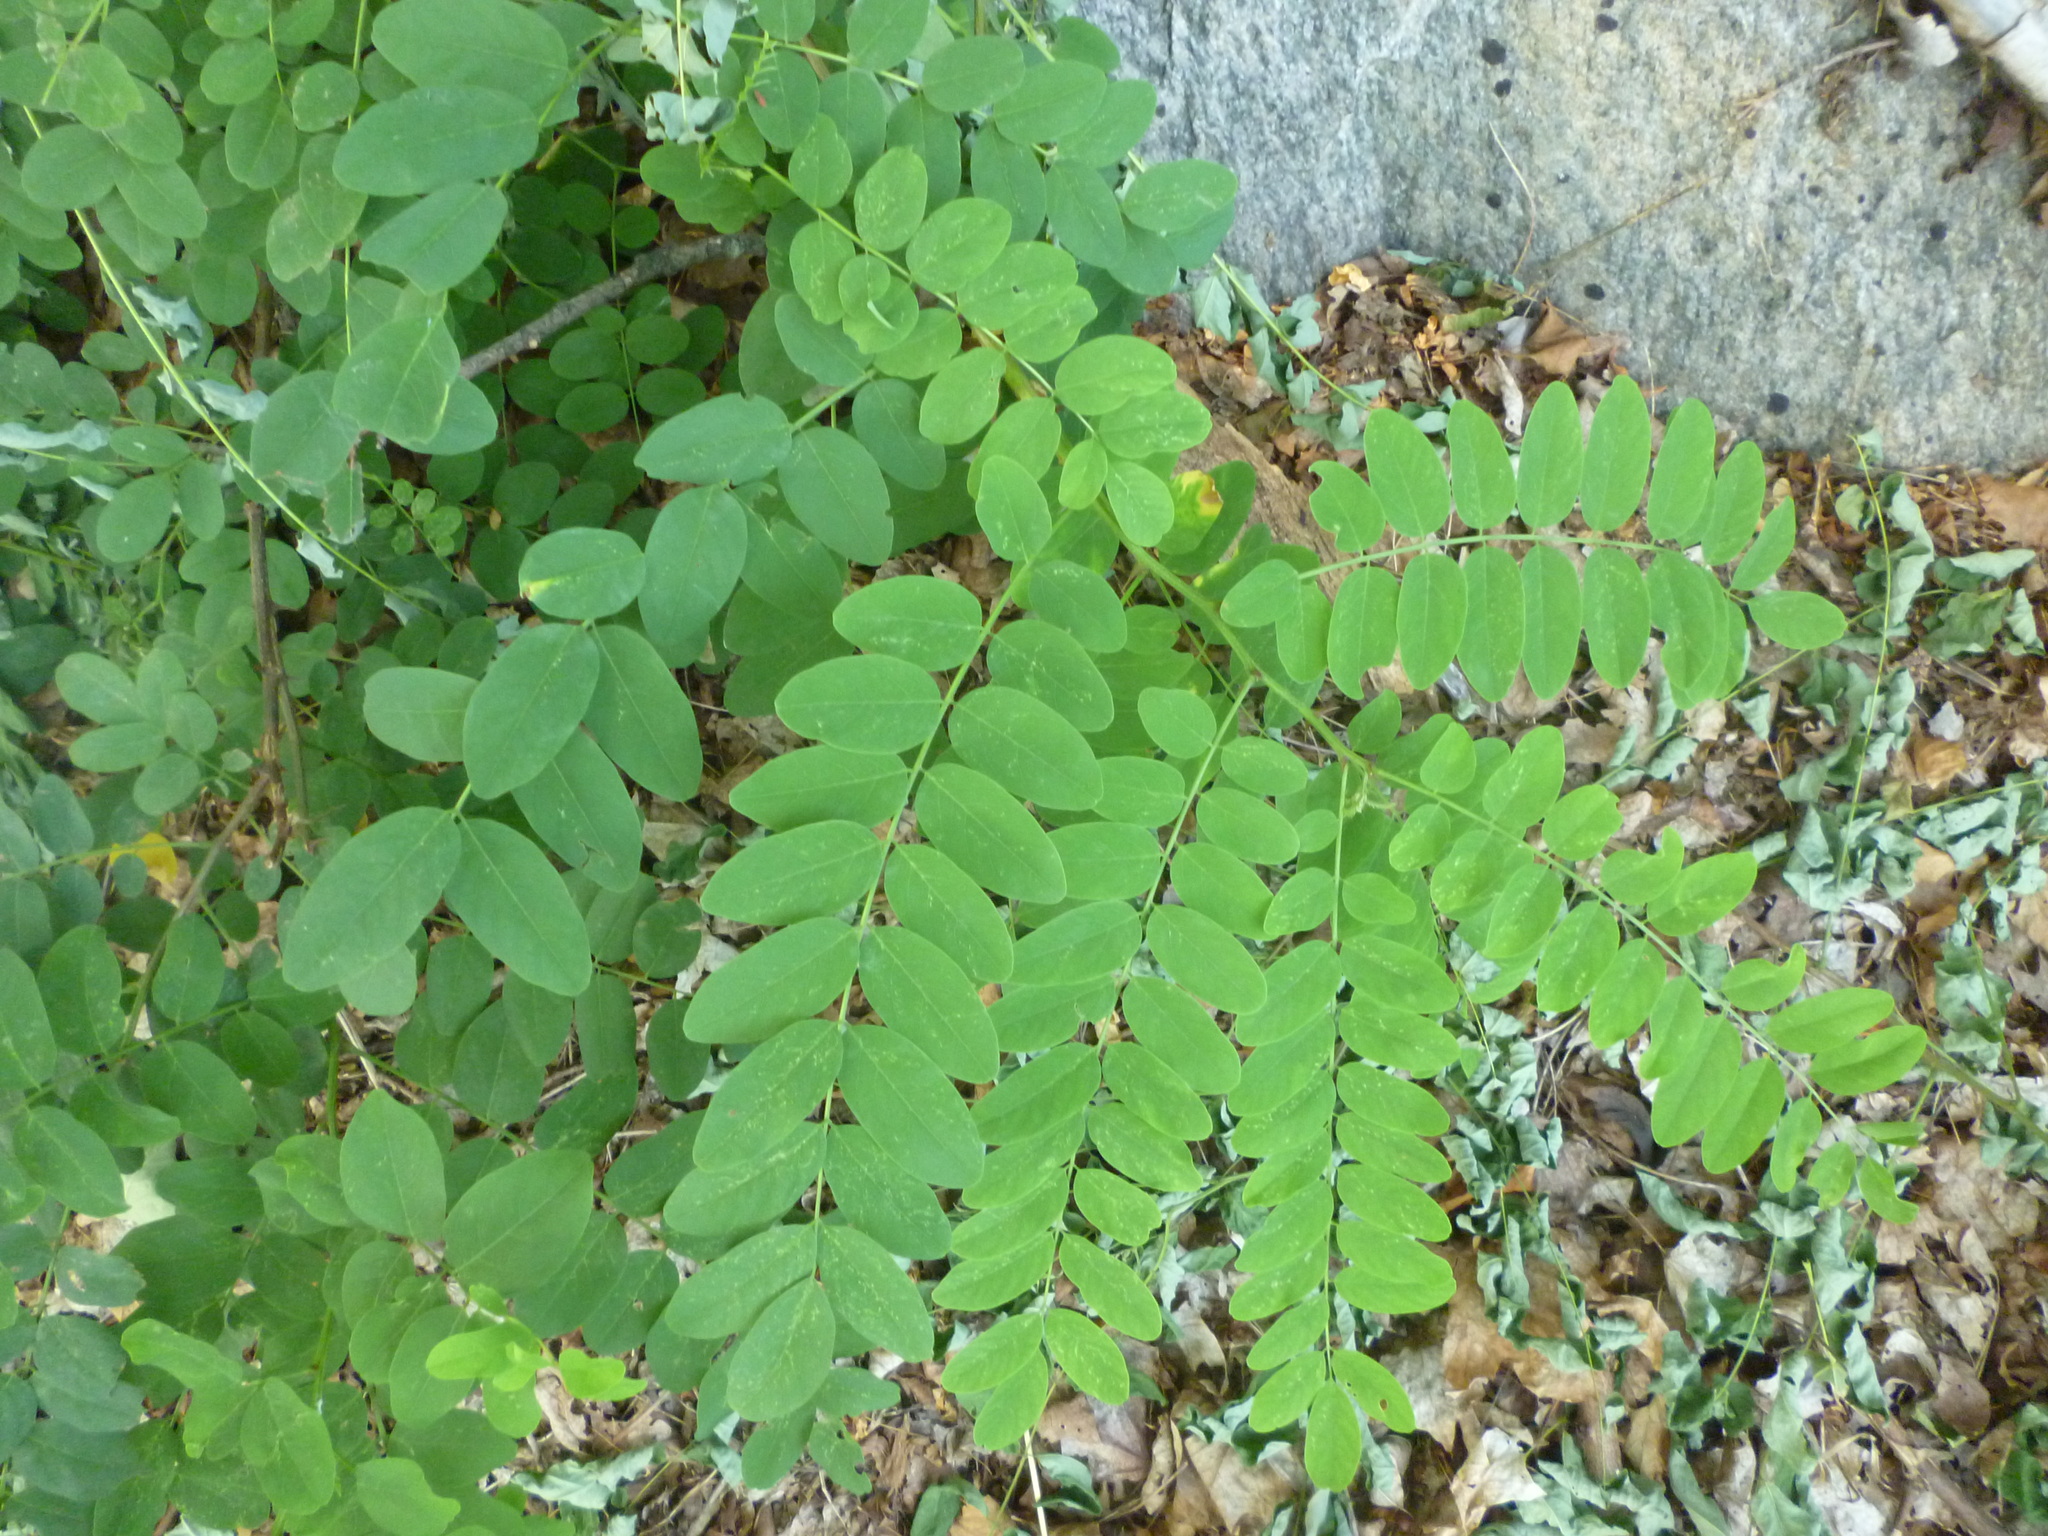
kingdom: Plantae
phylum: Tracheophyta
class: Magnoliopsida
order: Fabales
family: Fabaceae
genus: Robinia
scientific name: Robinia pseudoacacia
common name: Black locust
